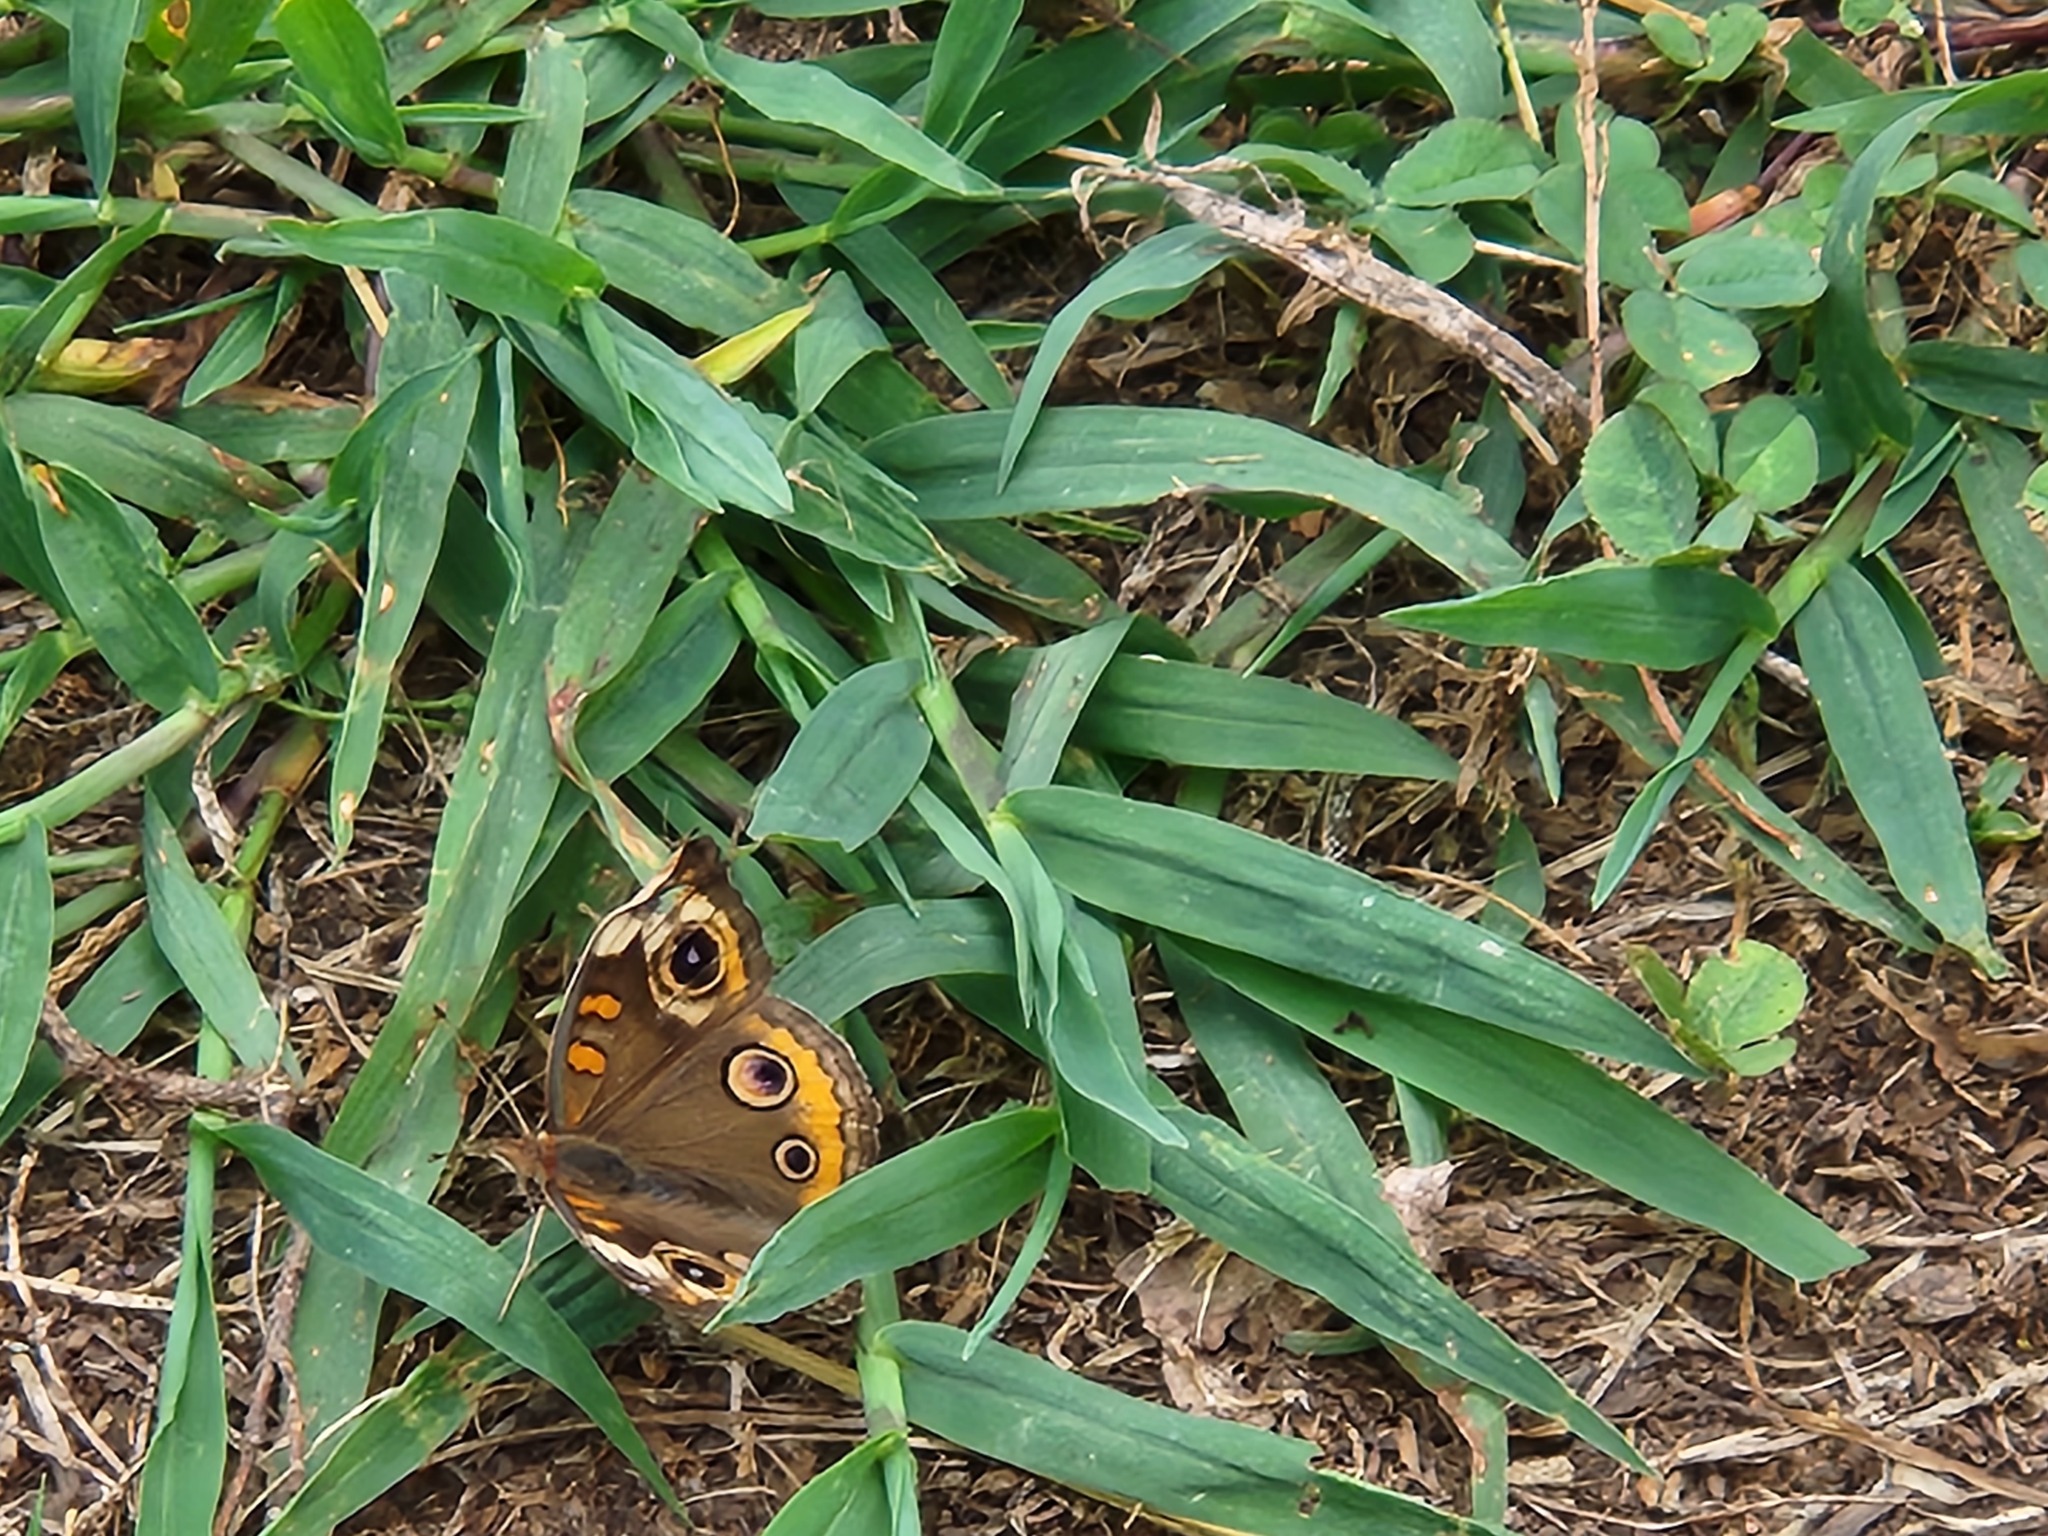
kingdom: Animalia
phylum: Arthropoda
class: Insecta
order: Lepidoptera
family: Nymphalidae
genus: Junonia
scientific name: Junonia coenia
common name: Common buckeye
